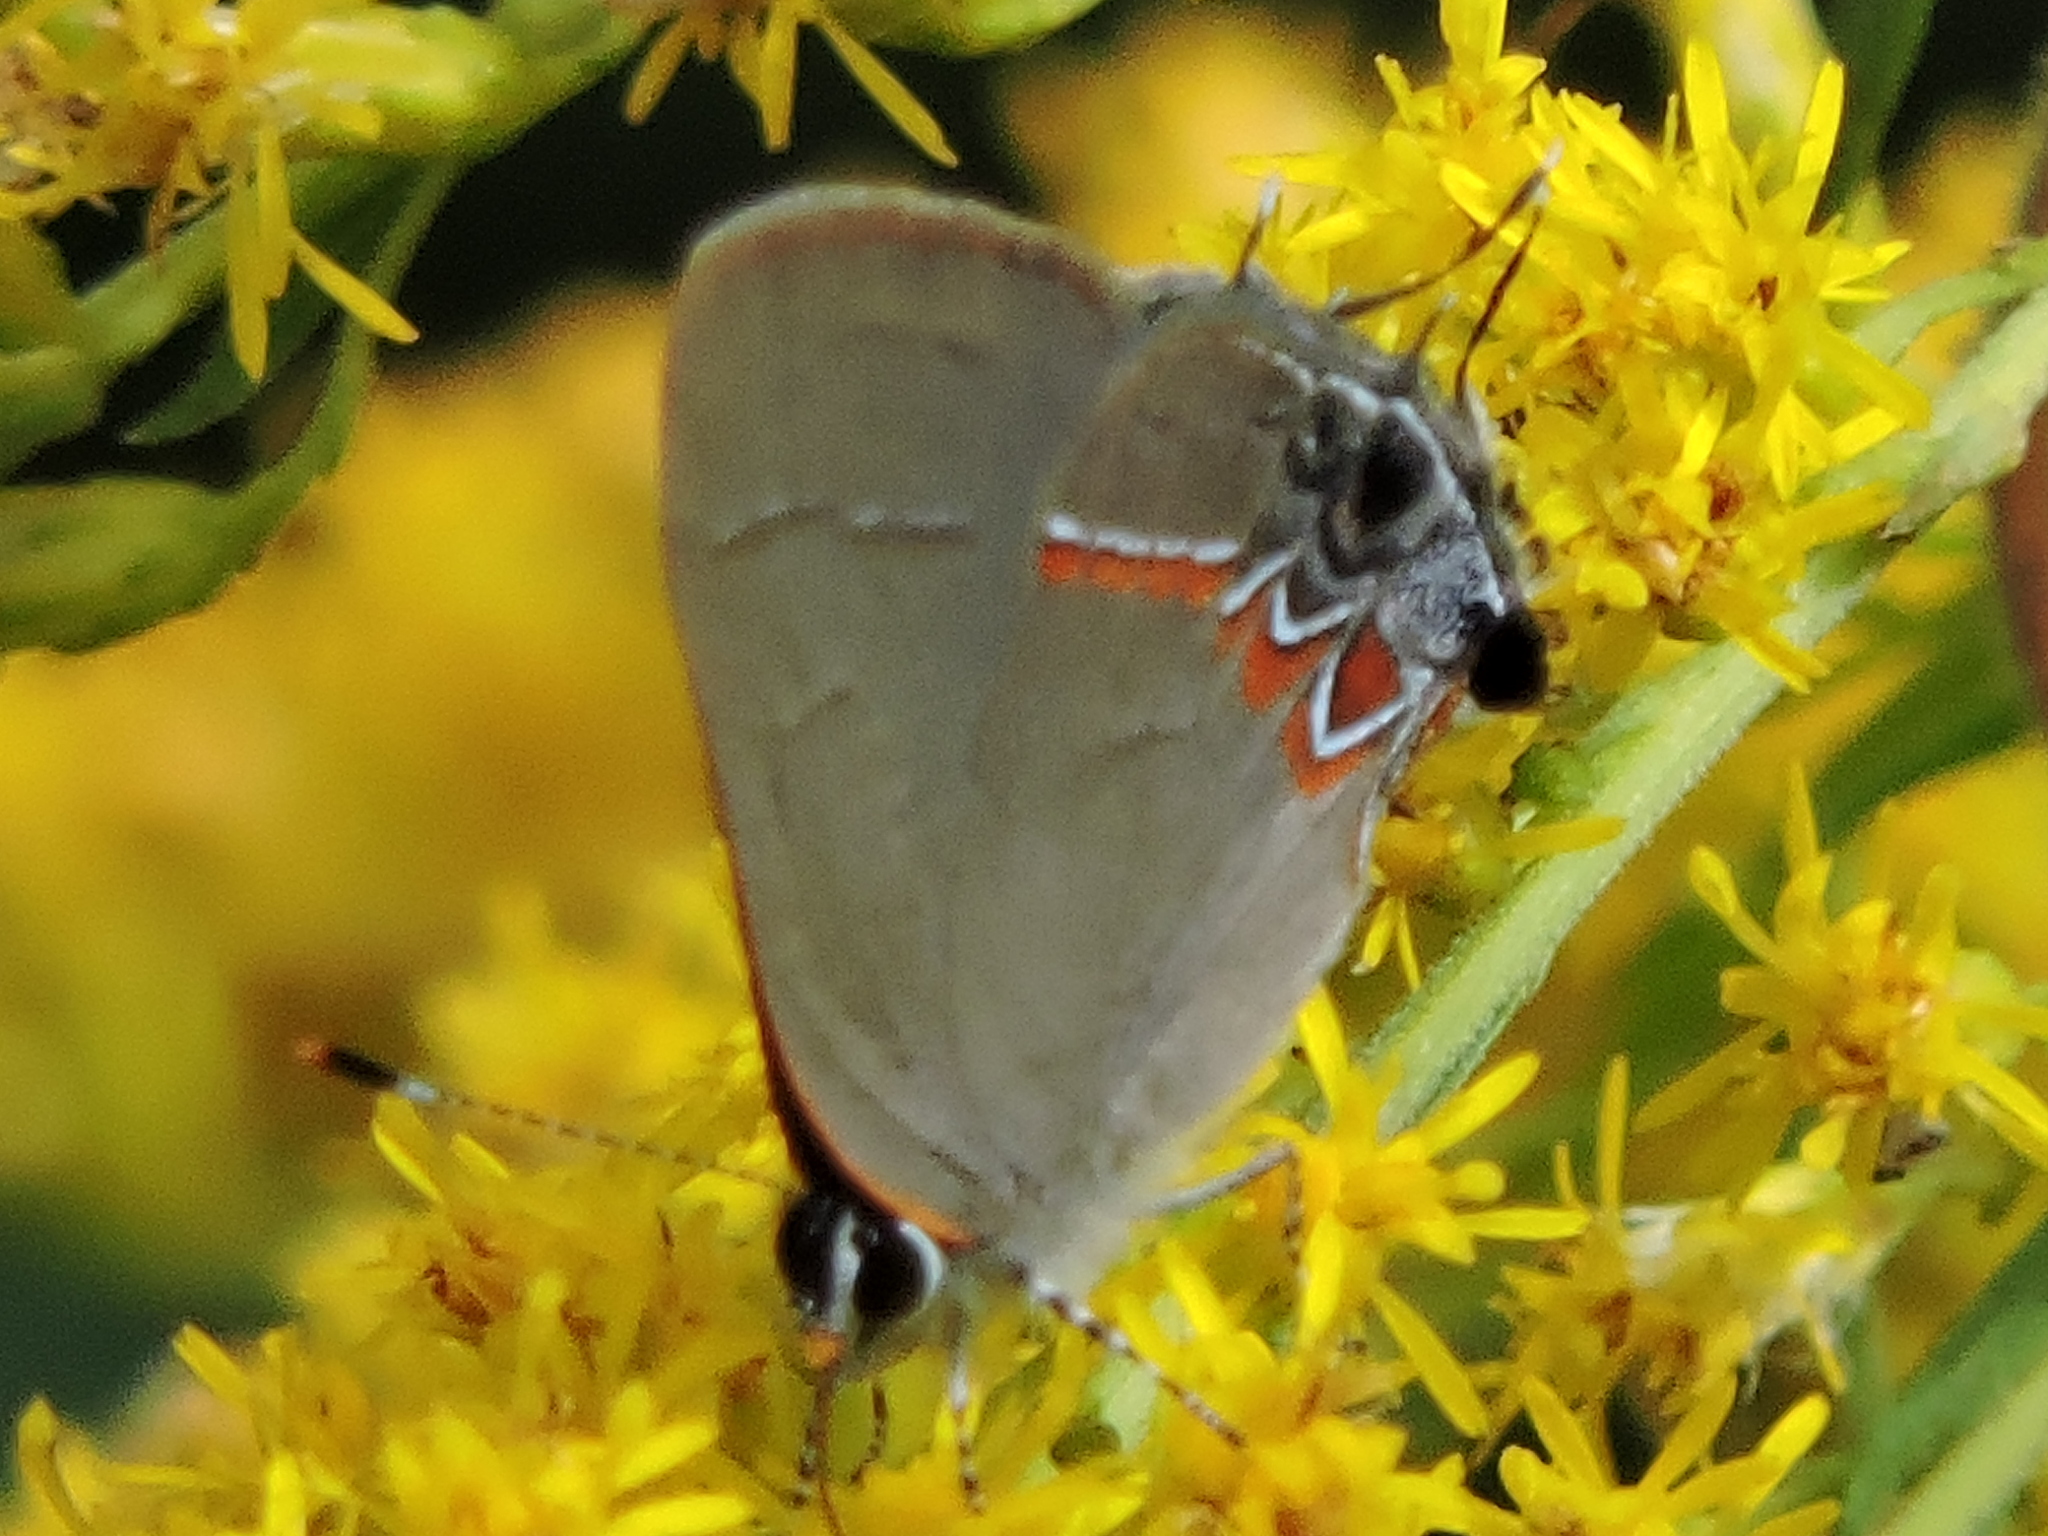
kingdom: Animalia
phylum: Arthropoda
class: Insecta
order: Lepidoptera
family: Lycaenidae
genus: Calycopis
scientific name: Calycopis cecrops
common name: Red-banded hairstreak
